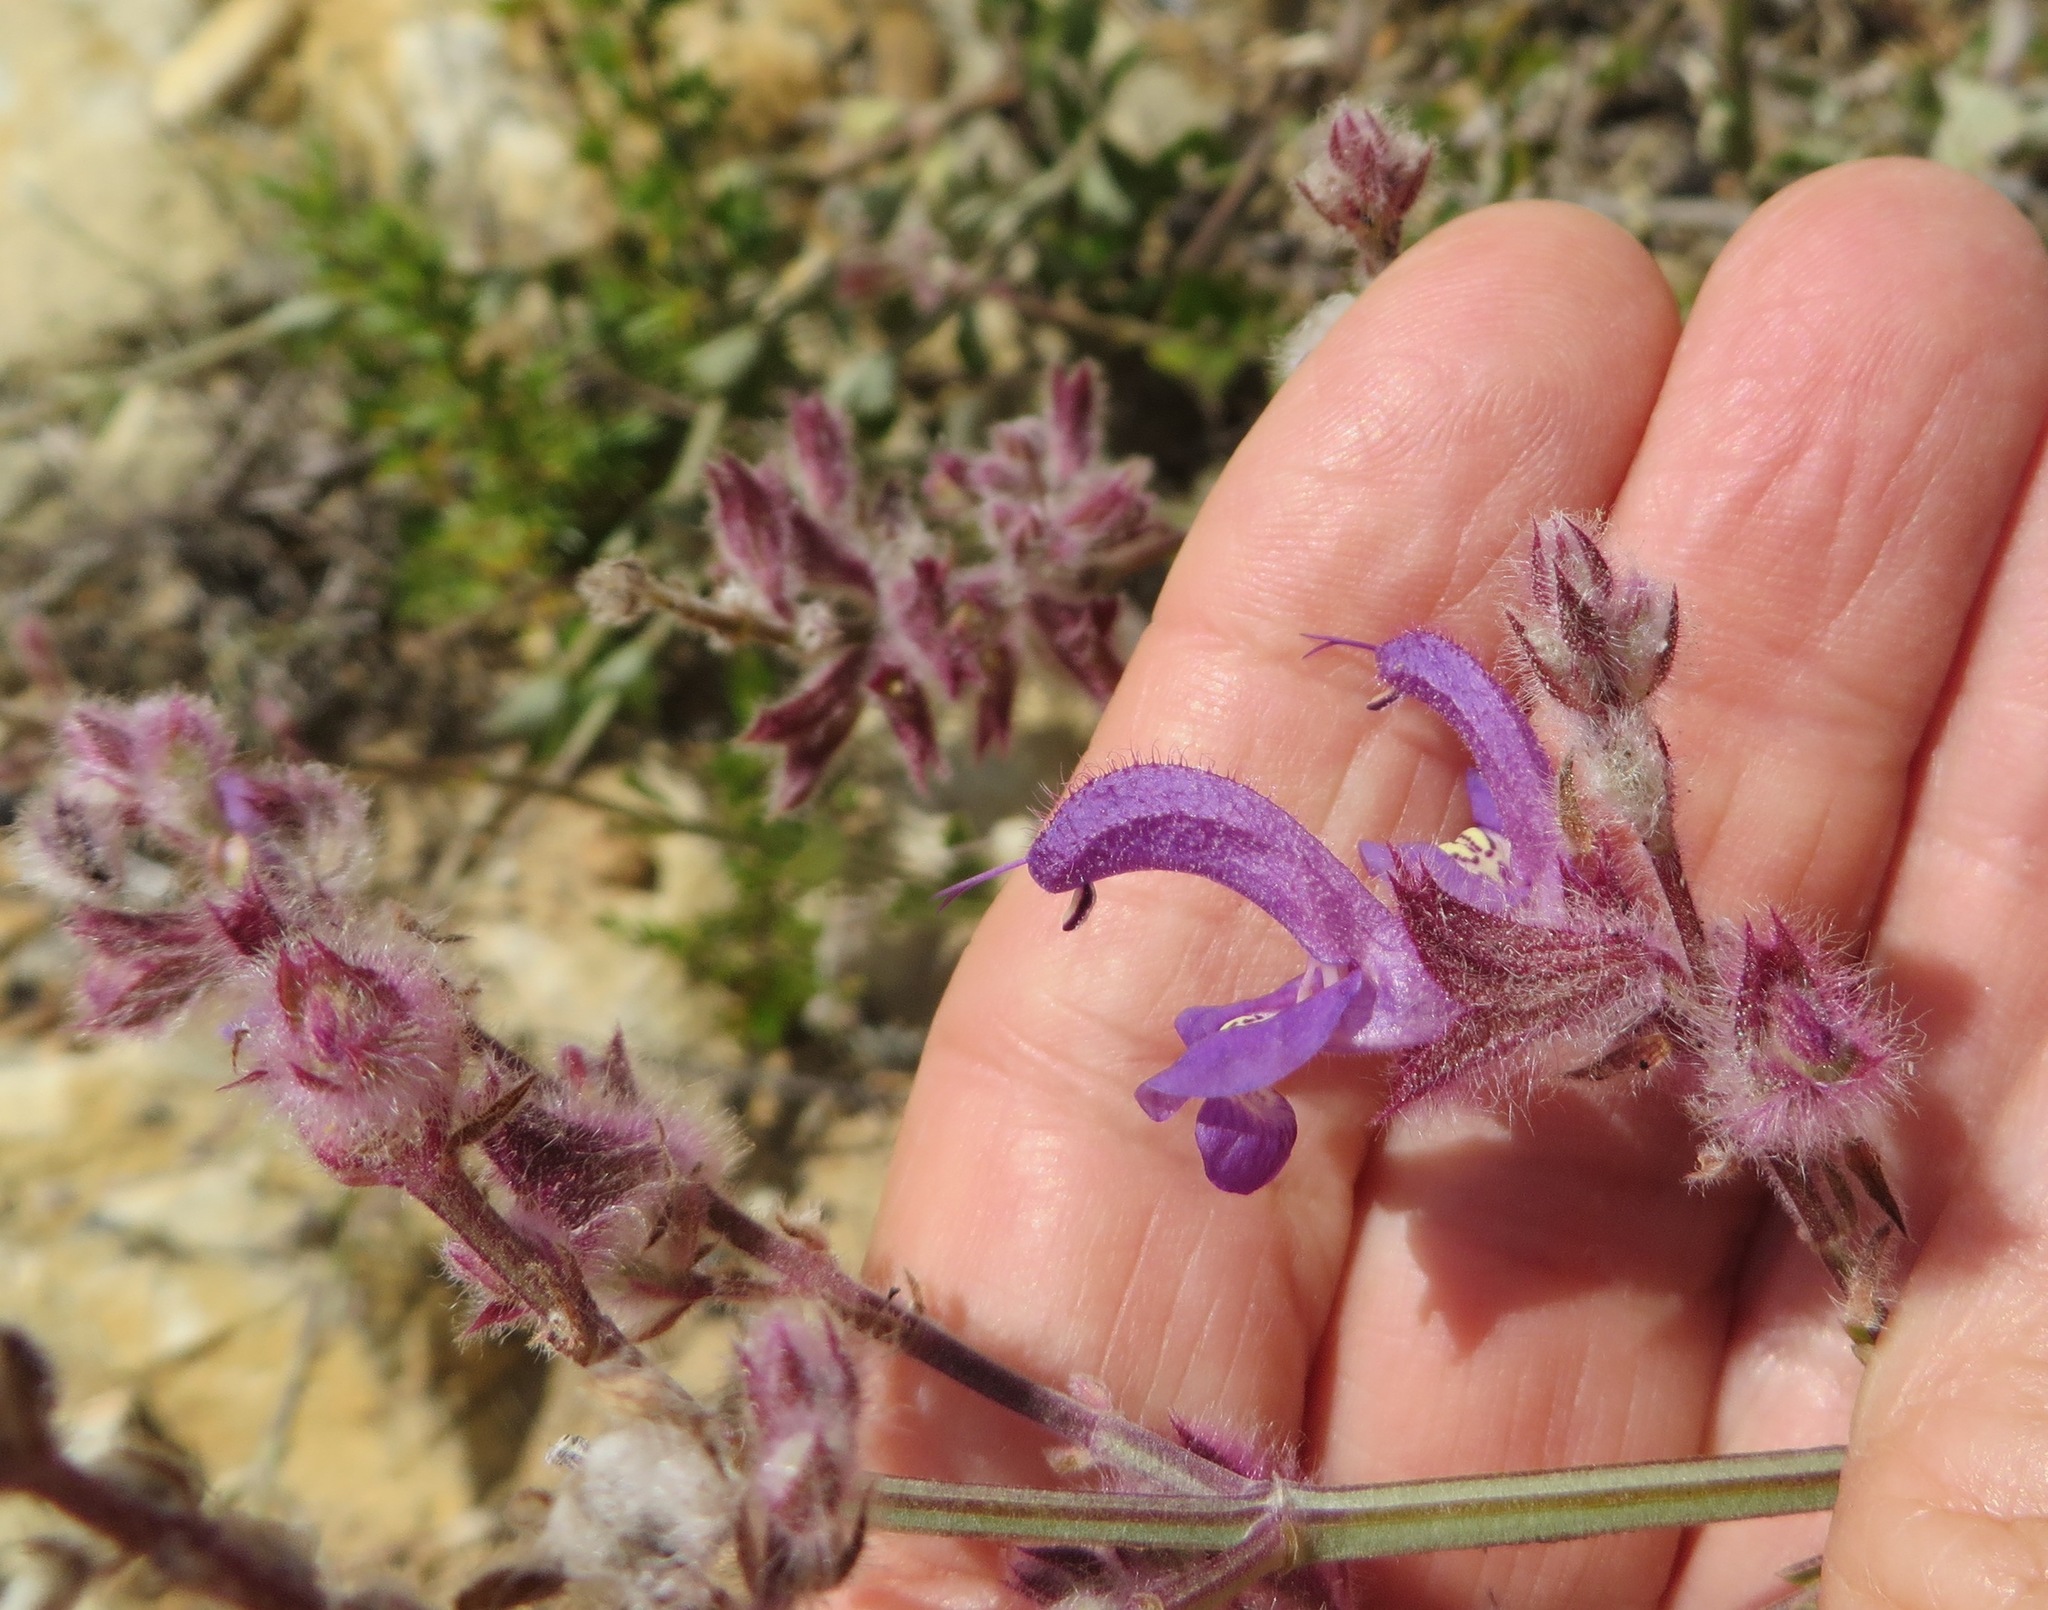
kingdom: Plantae
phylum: Tracheophyta
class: Magnoliopsida
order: Lamiales
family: Lamiaceae
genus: Salvia
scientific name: Salvia albicaulis
